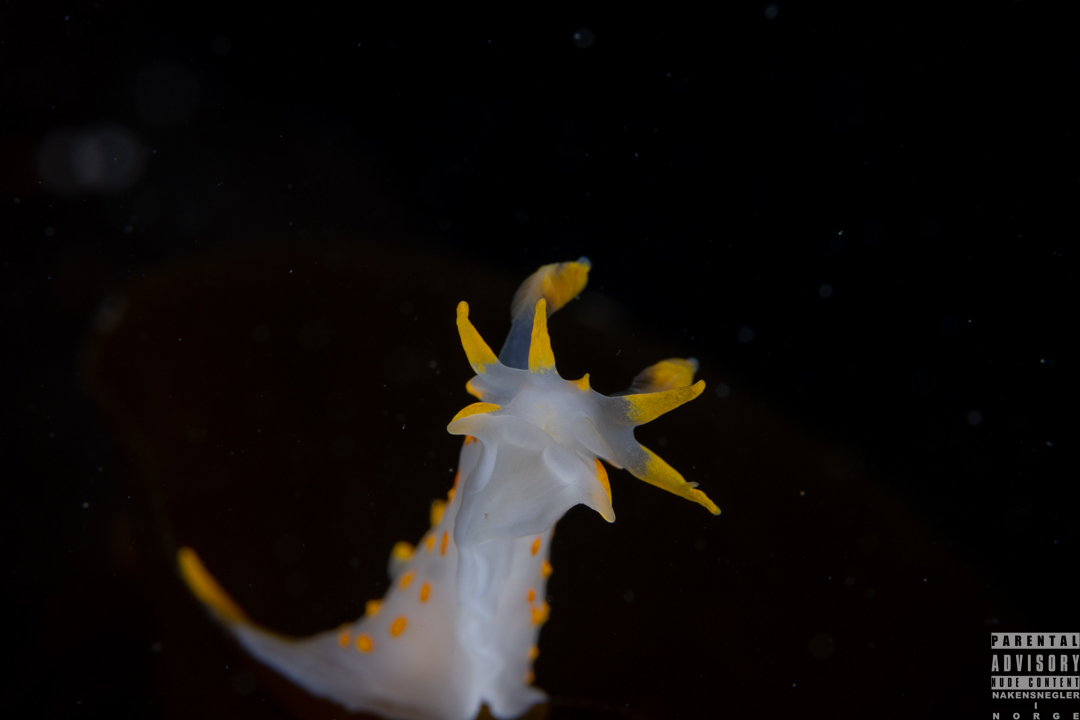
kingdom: Animalia
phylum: Mollusca
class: Gastropoda
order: Nudibranchia
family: Polyceridae
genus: Polycera
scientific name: Polycera quadrilineata
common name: Four-striped polycera
